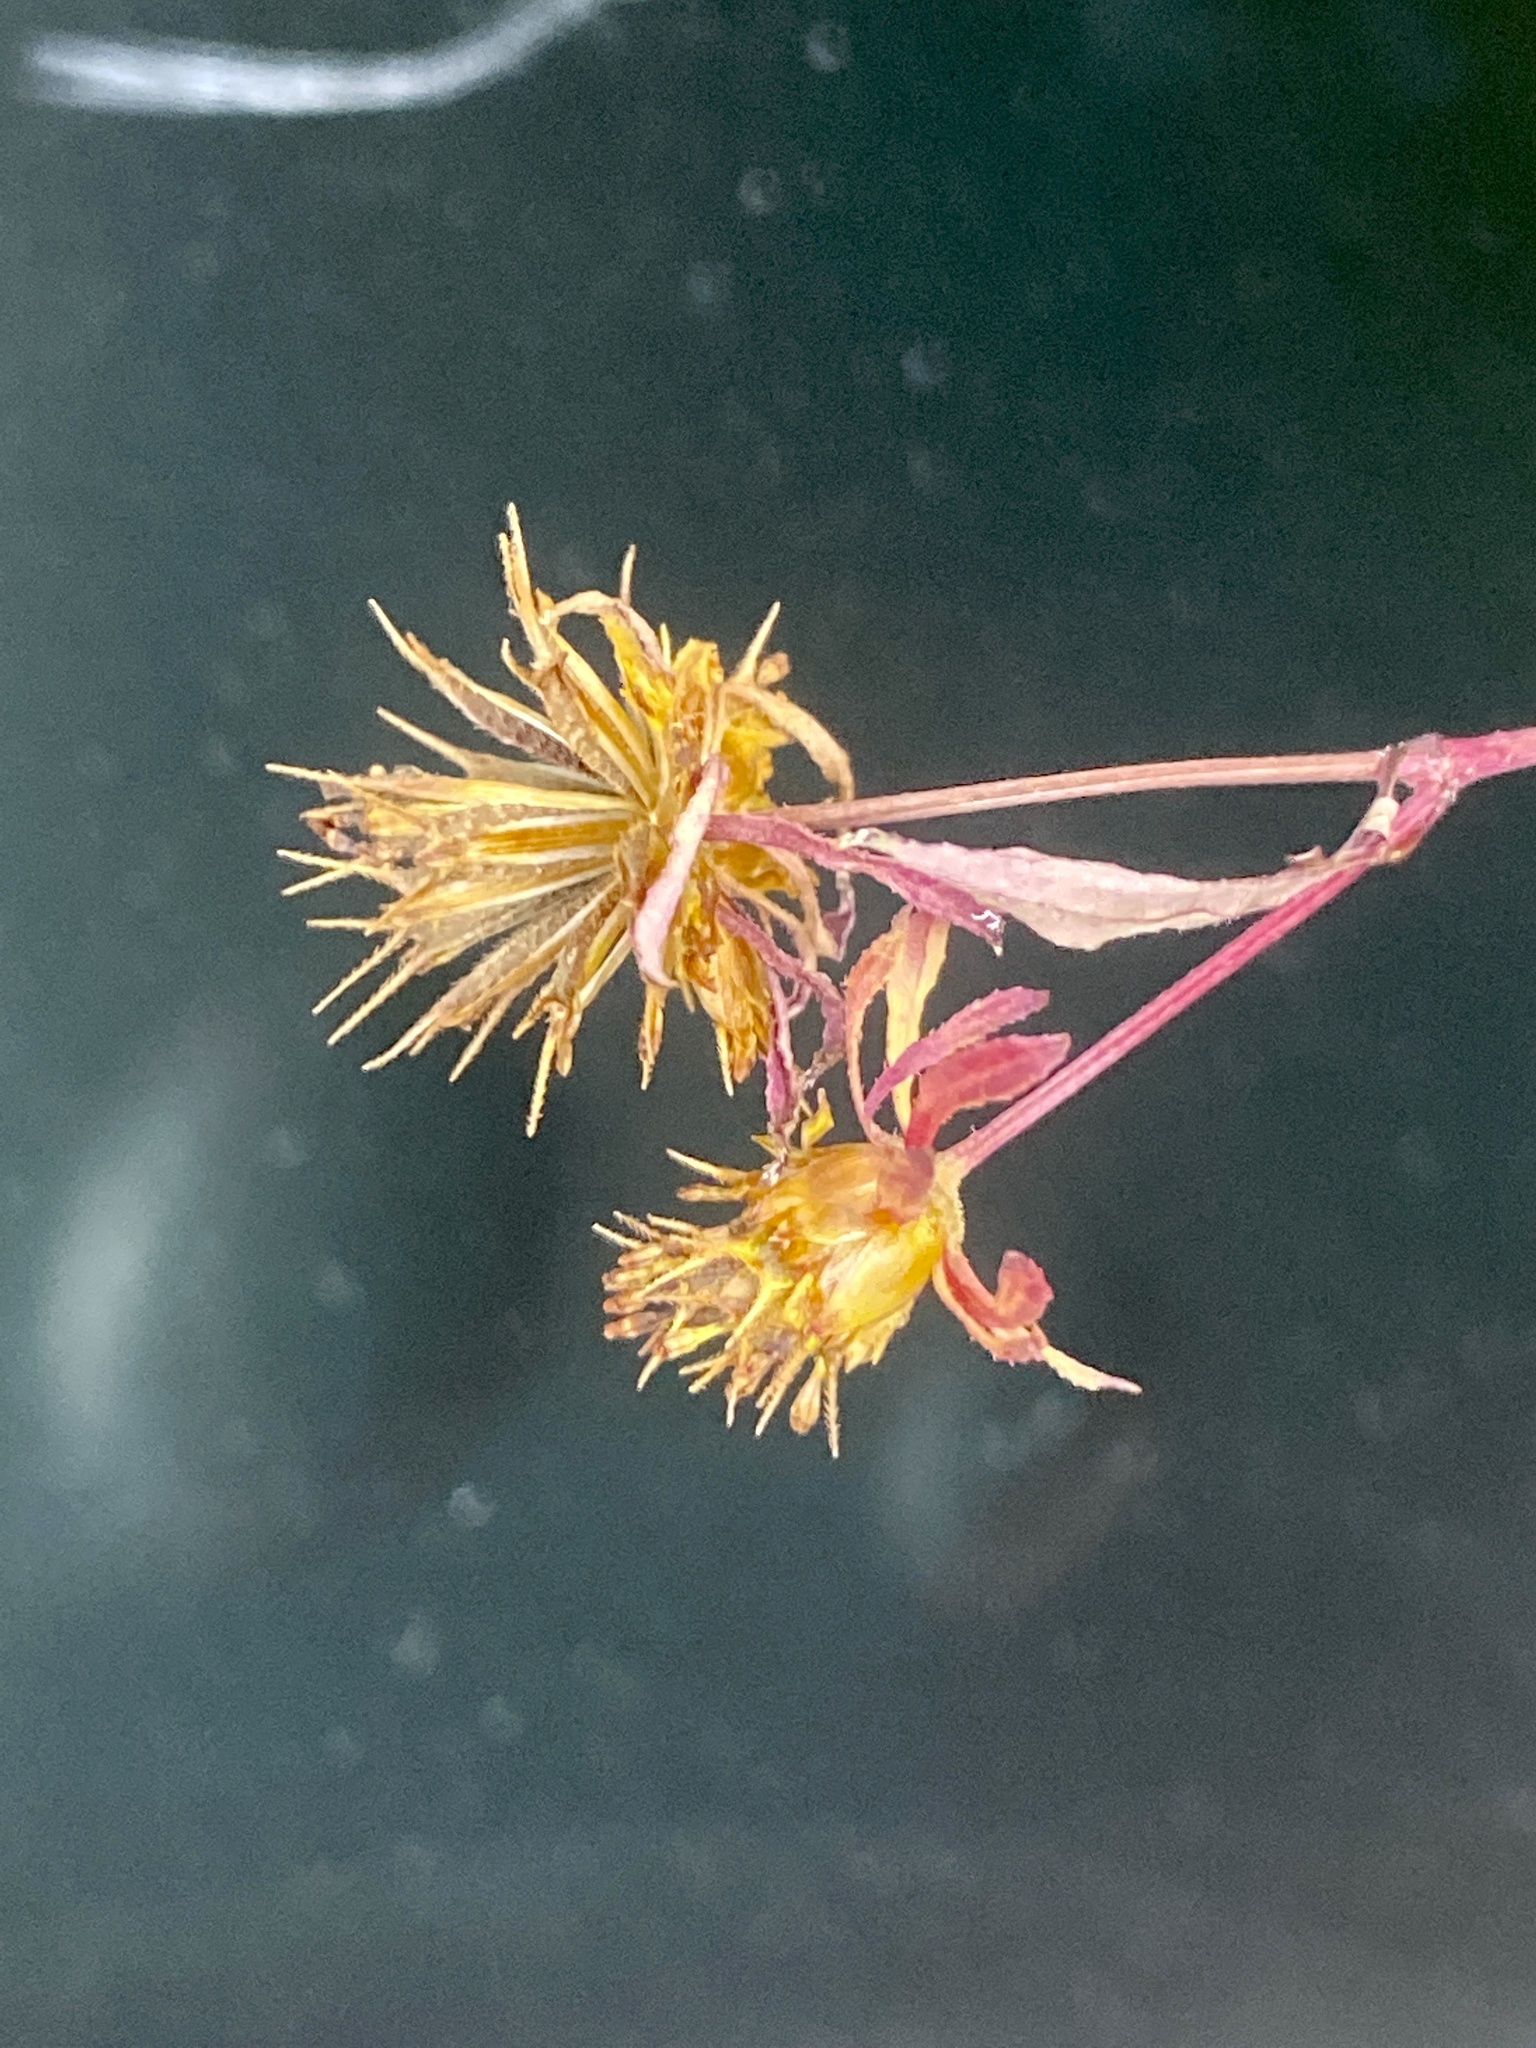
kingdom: Plantae
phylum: Tracheophyta
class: Magnoliopsida
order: Asterales
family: Asteraceae
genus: Bidens
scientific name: Bidens frondosa
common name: Beggarticks
